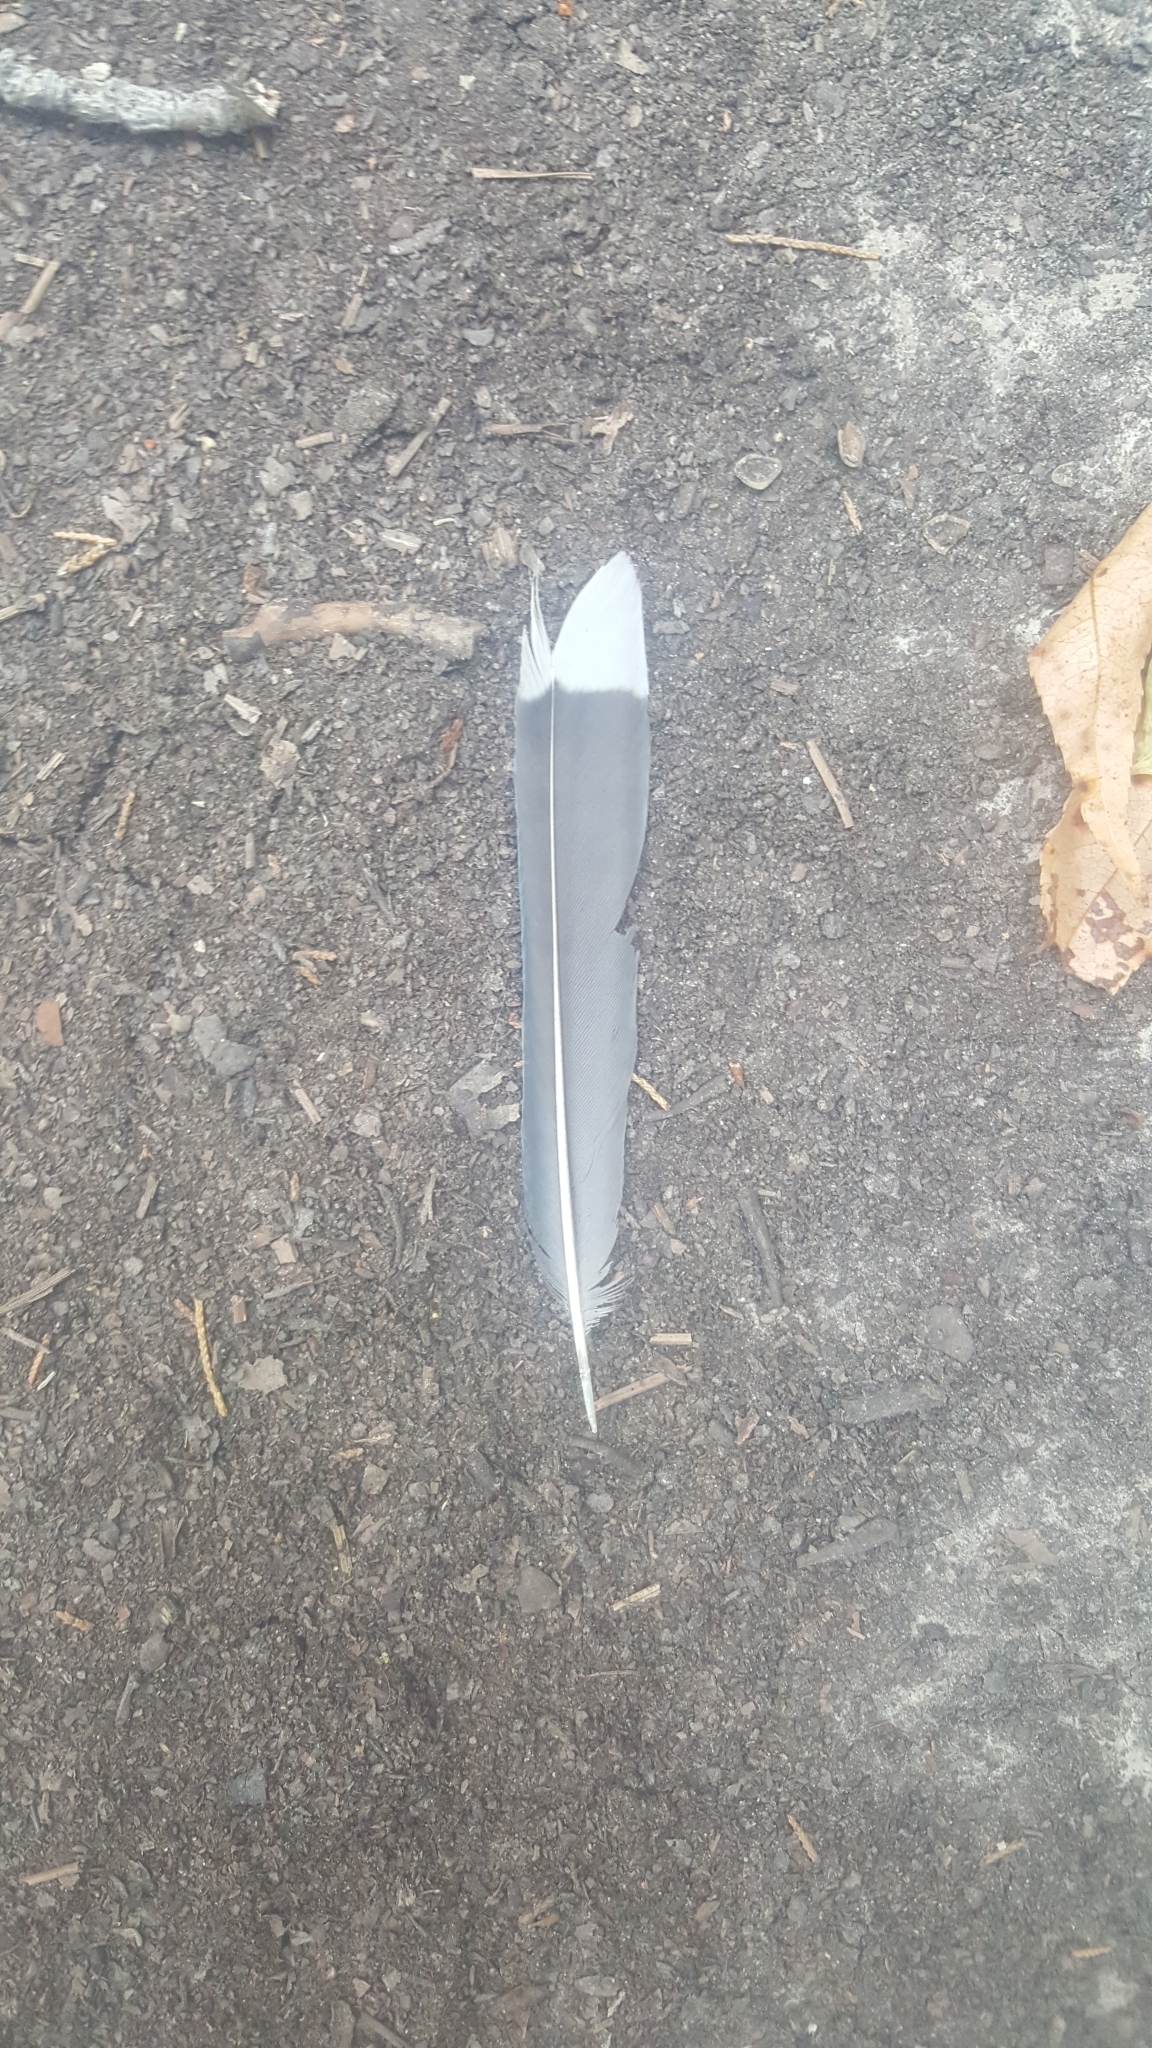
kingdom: Animalia
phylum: Chordata
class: Aves
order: Passeriformes
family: Corvidae
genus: Cyanocitta
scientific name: Cyanocitta cristata
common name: Blue jay
